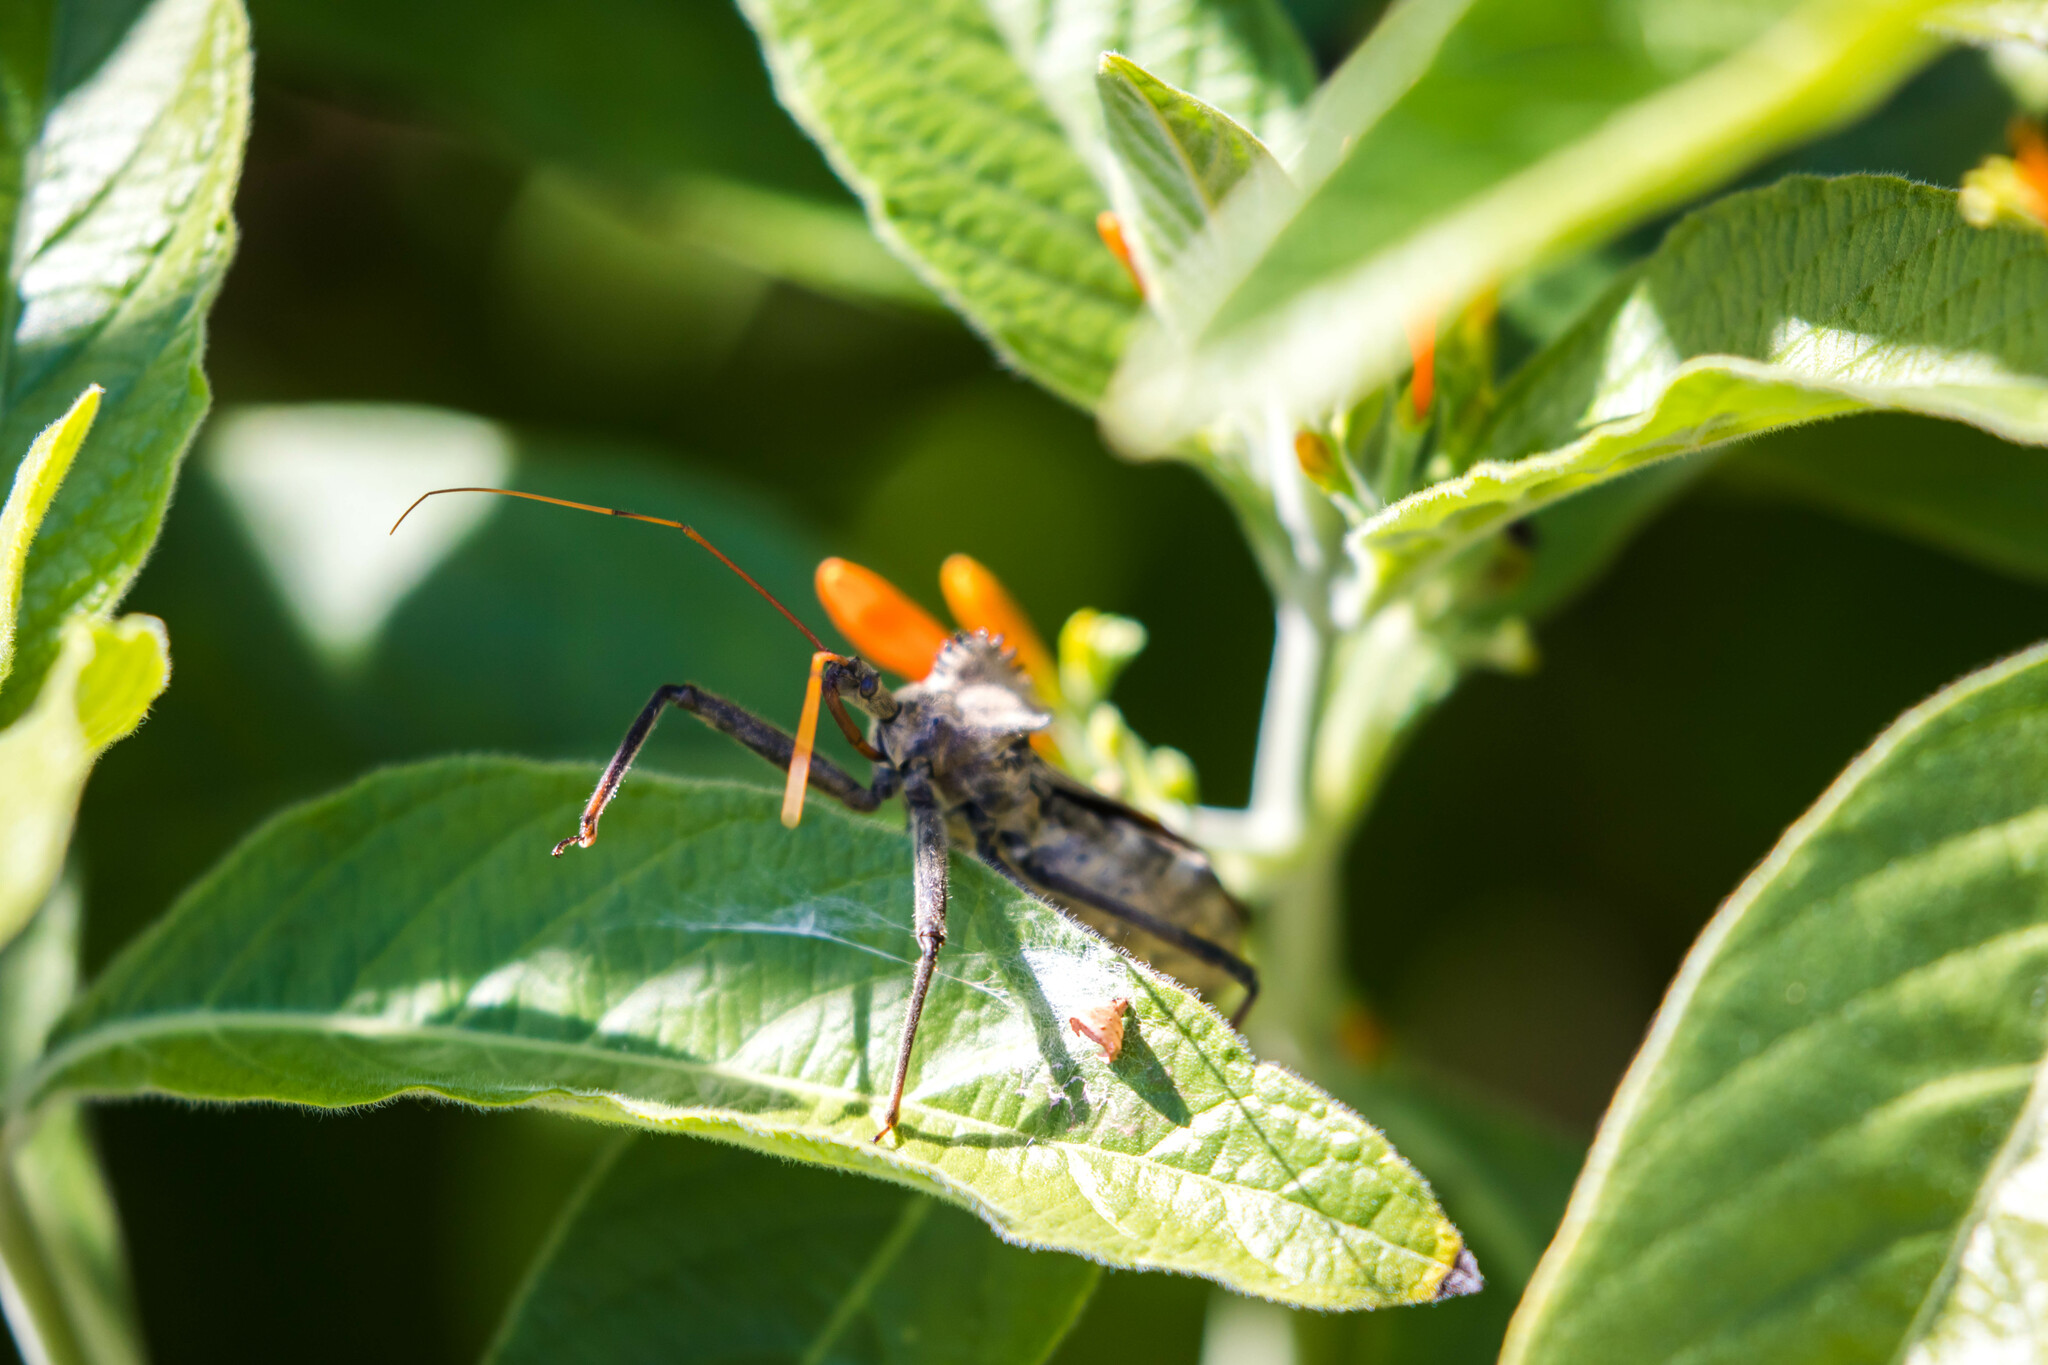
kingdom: Animalia
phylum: Arthropoda
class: Insecta
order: Hemiptera
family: Reduviidae
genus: Arilus
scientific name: Arilus cristatus
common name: North american wheel bug
